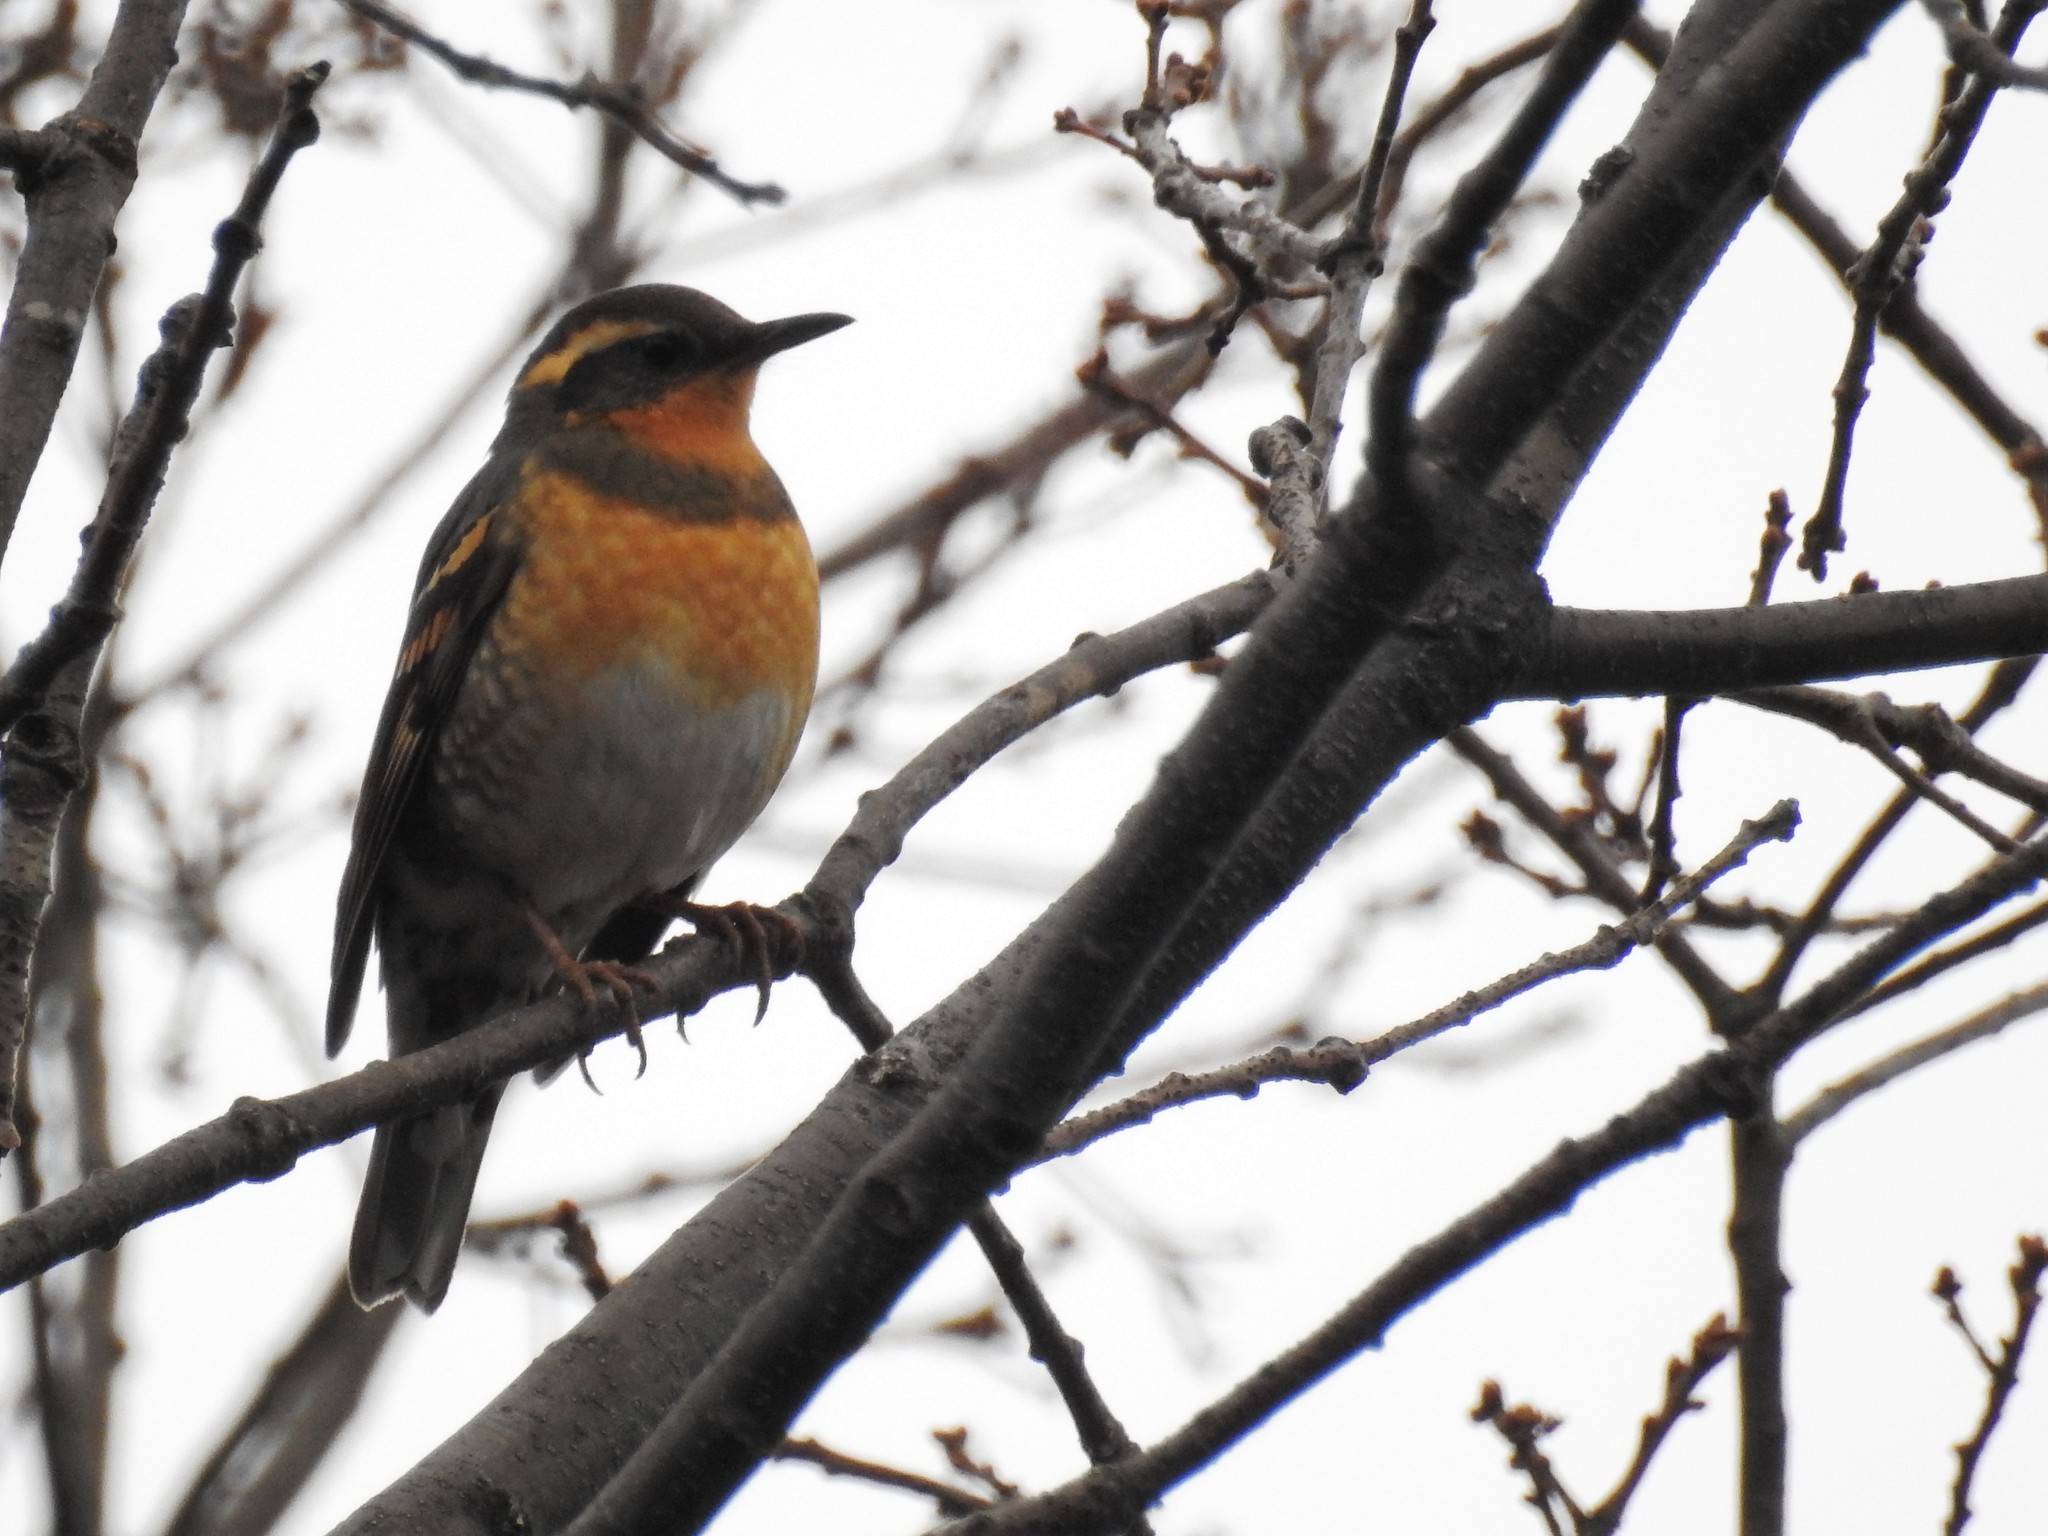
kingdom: Animalia
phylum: Chordata
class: Aves
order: Passeriformes
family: Turdidae
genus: Ixoreus
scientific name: Ixoreus naevius
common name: Varied thrush
